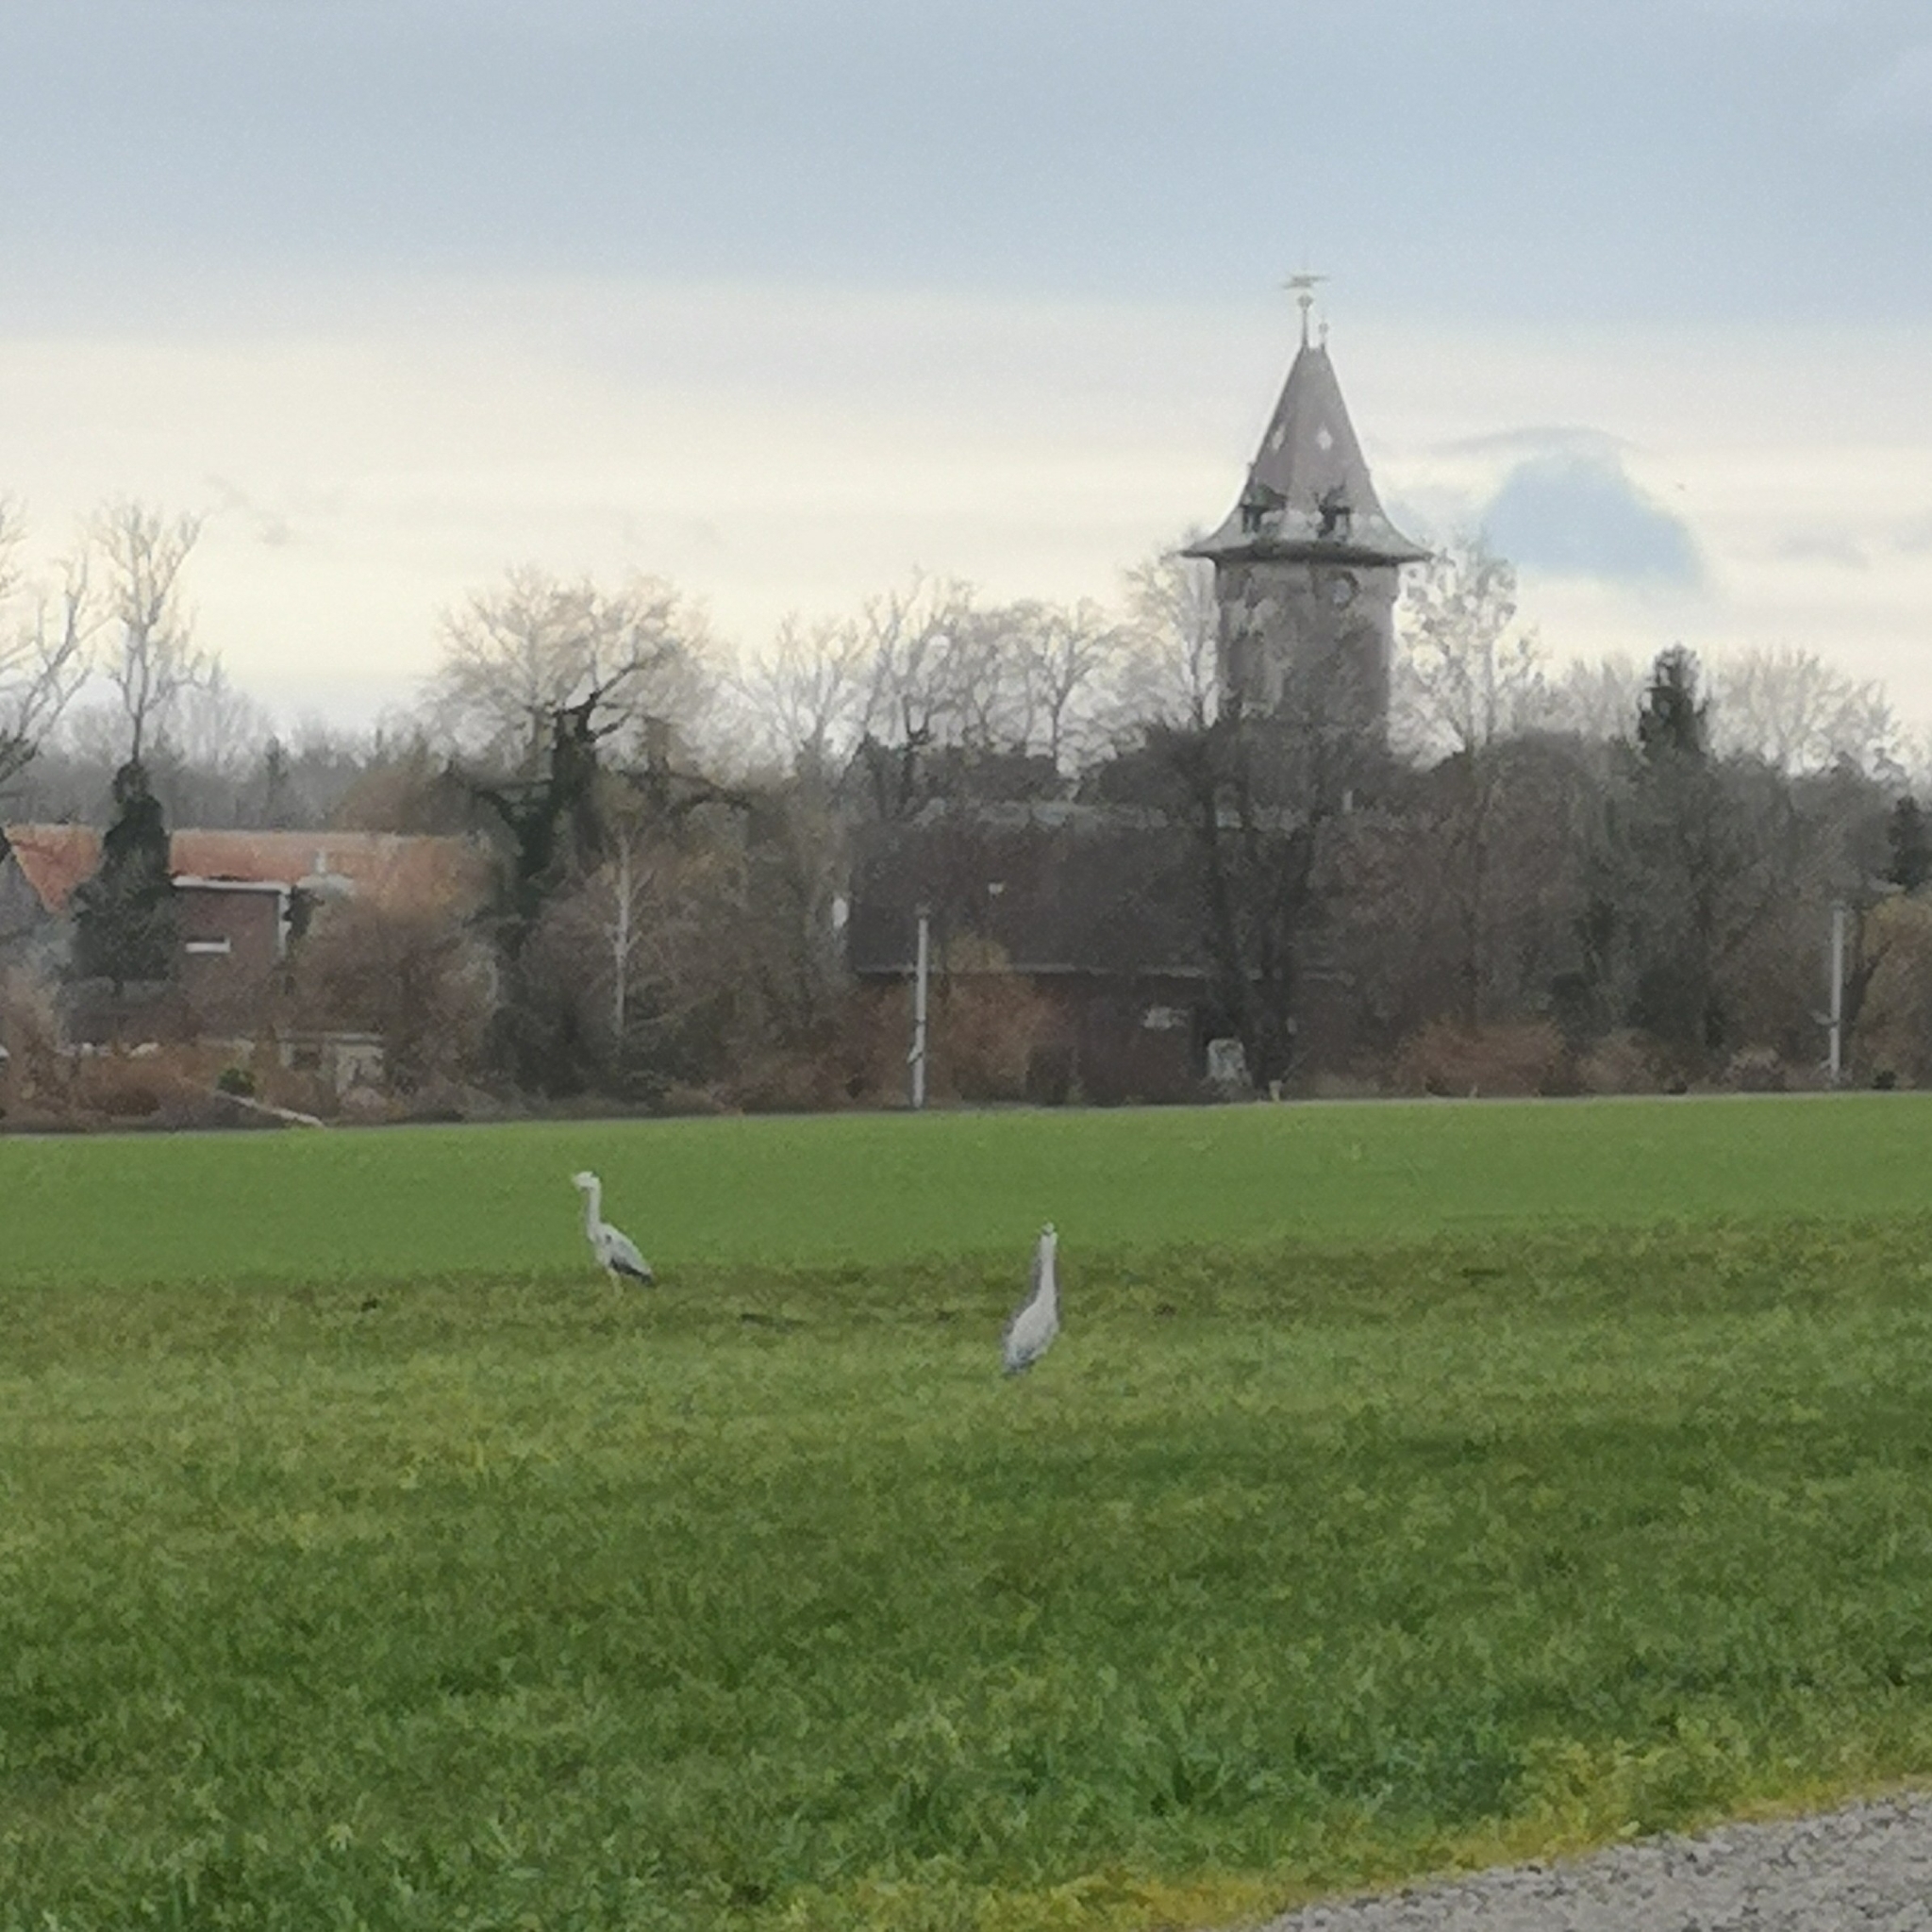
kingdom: Animalia
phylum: Chordata
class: Aves
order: Pelecaniformes
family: Ardeidae
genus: Ardea
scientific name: Ardea cinerea
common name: Grey heron
